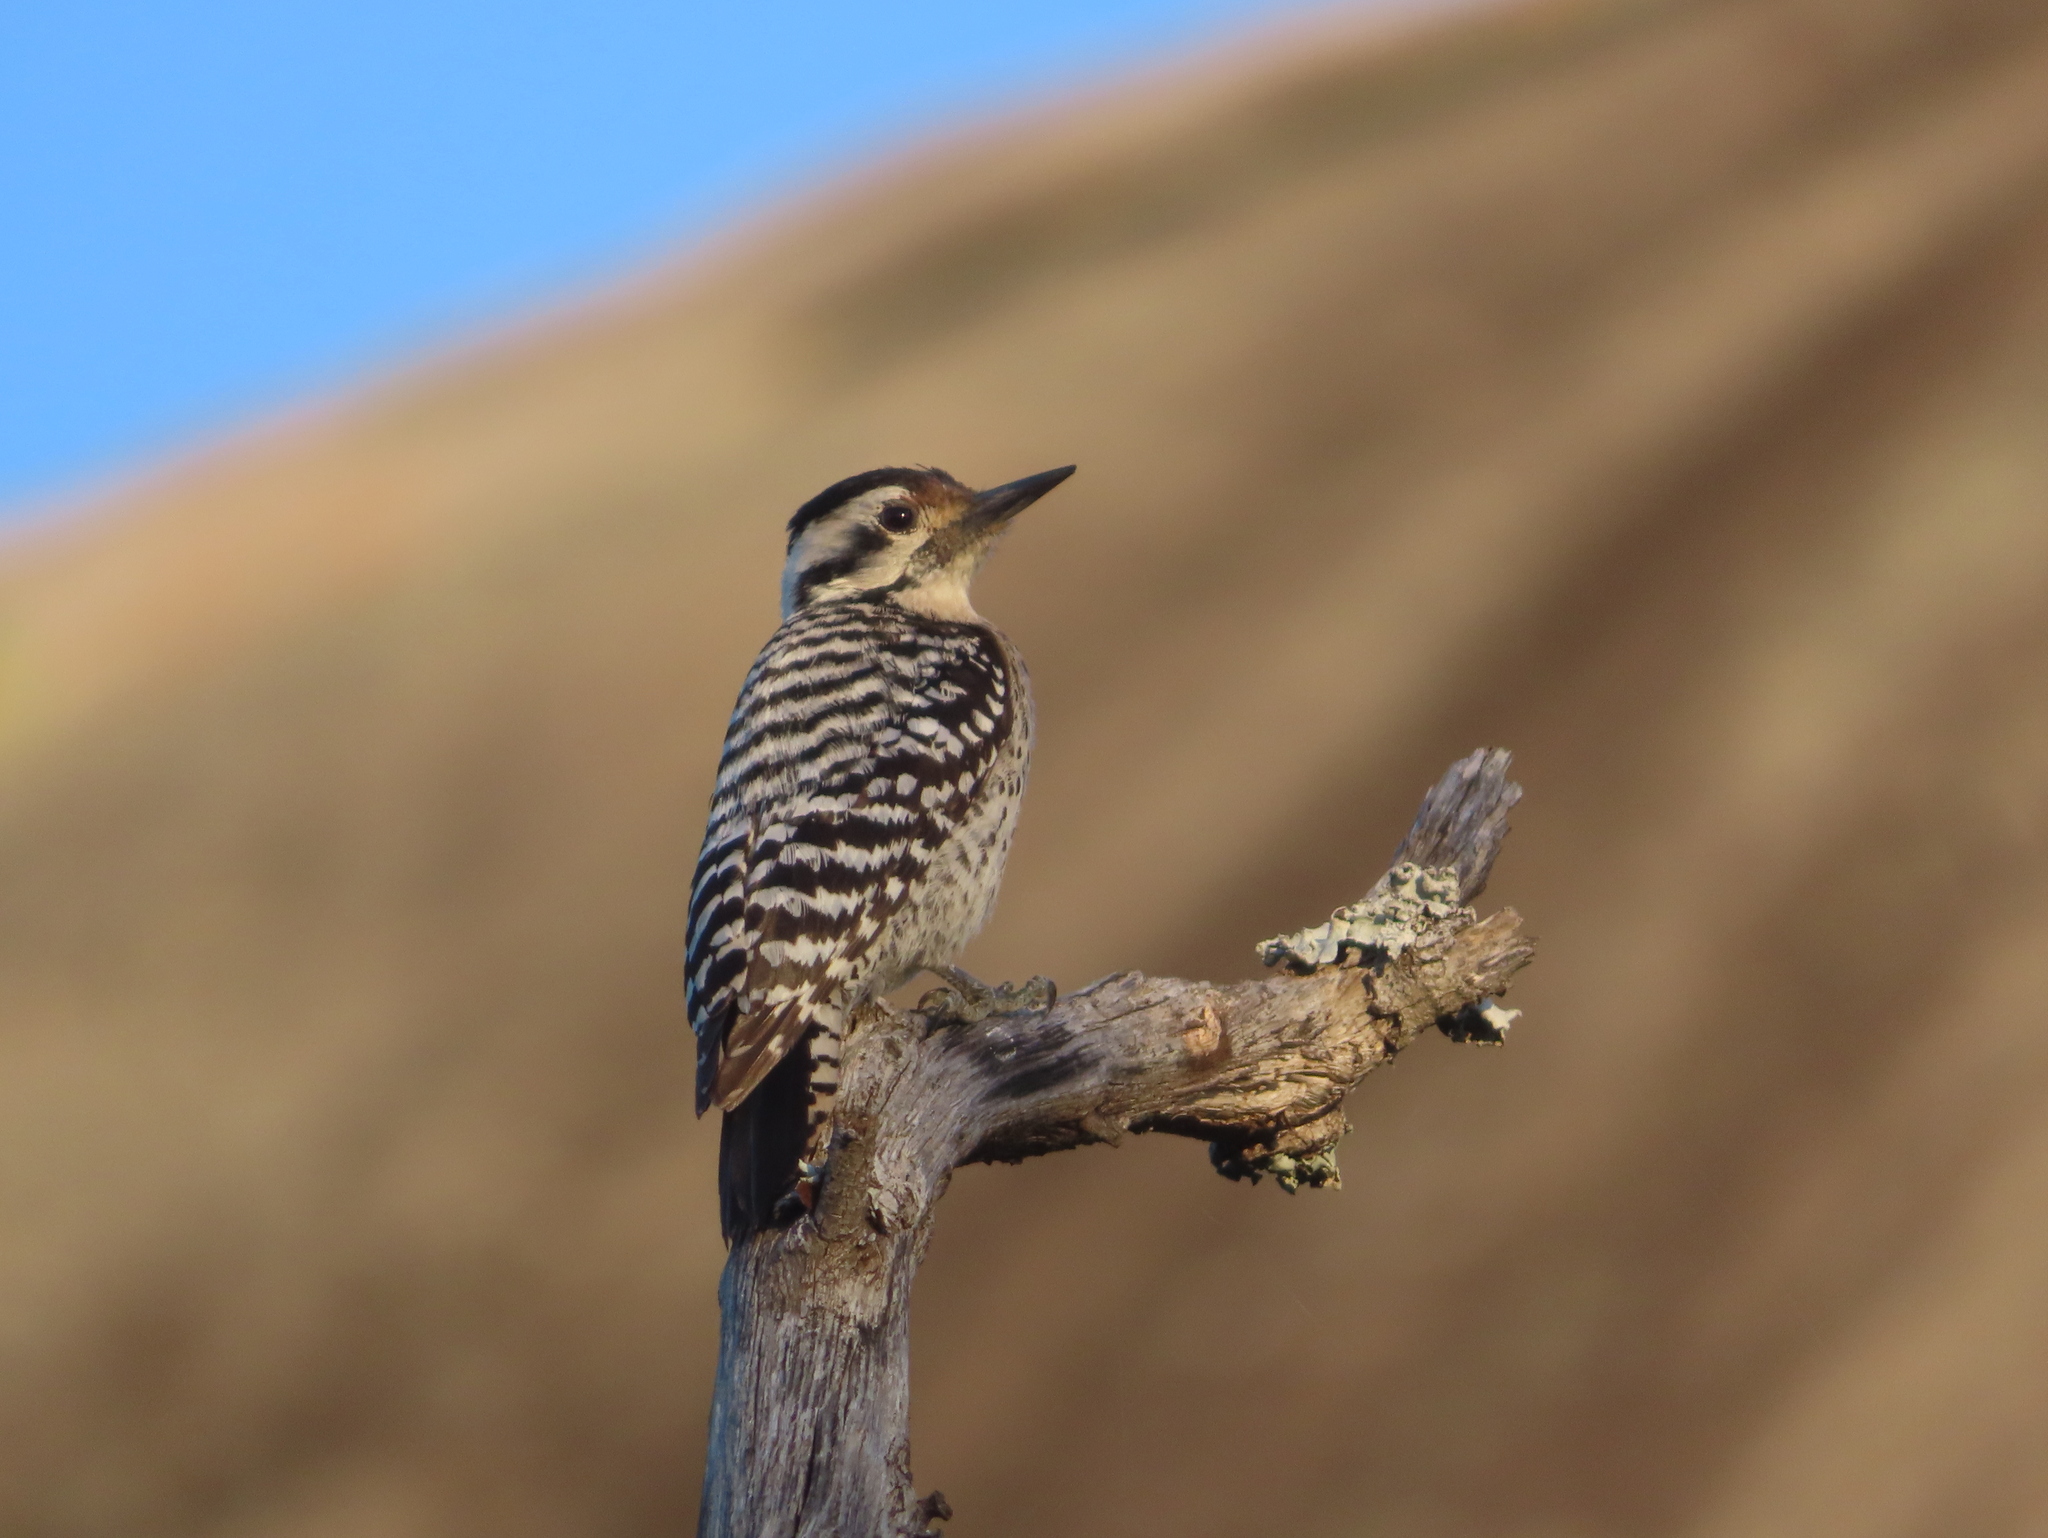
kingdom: Animalia
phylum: Chordata
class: Aves
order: Piciformes
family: Picidae
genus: Dryobates
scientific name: Dryobates scalaris
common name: Ladder-backed woodpecker
